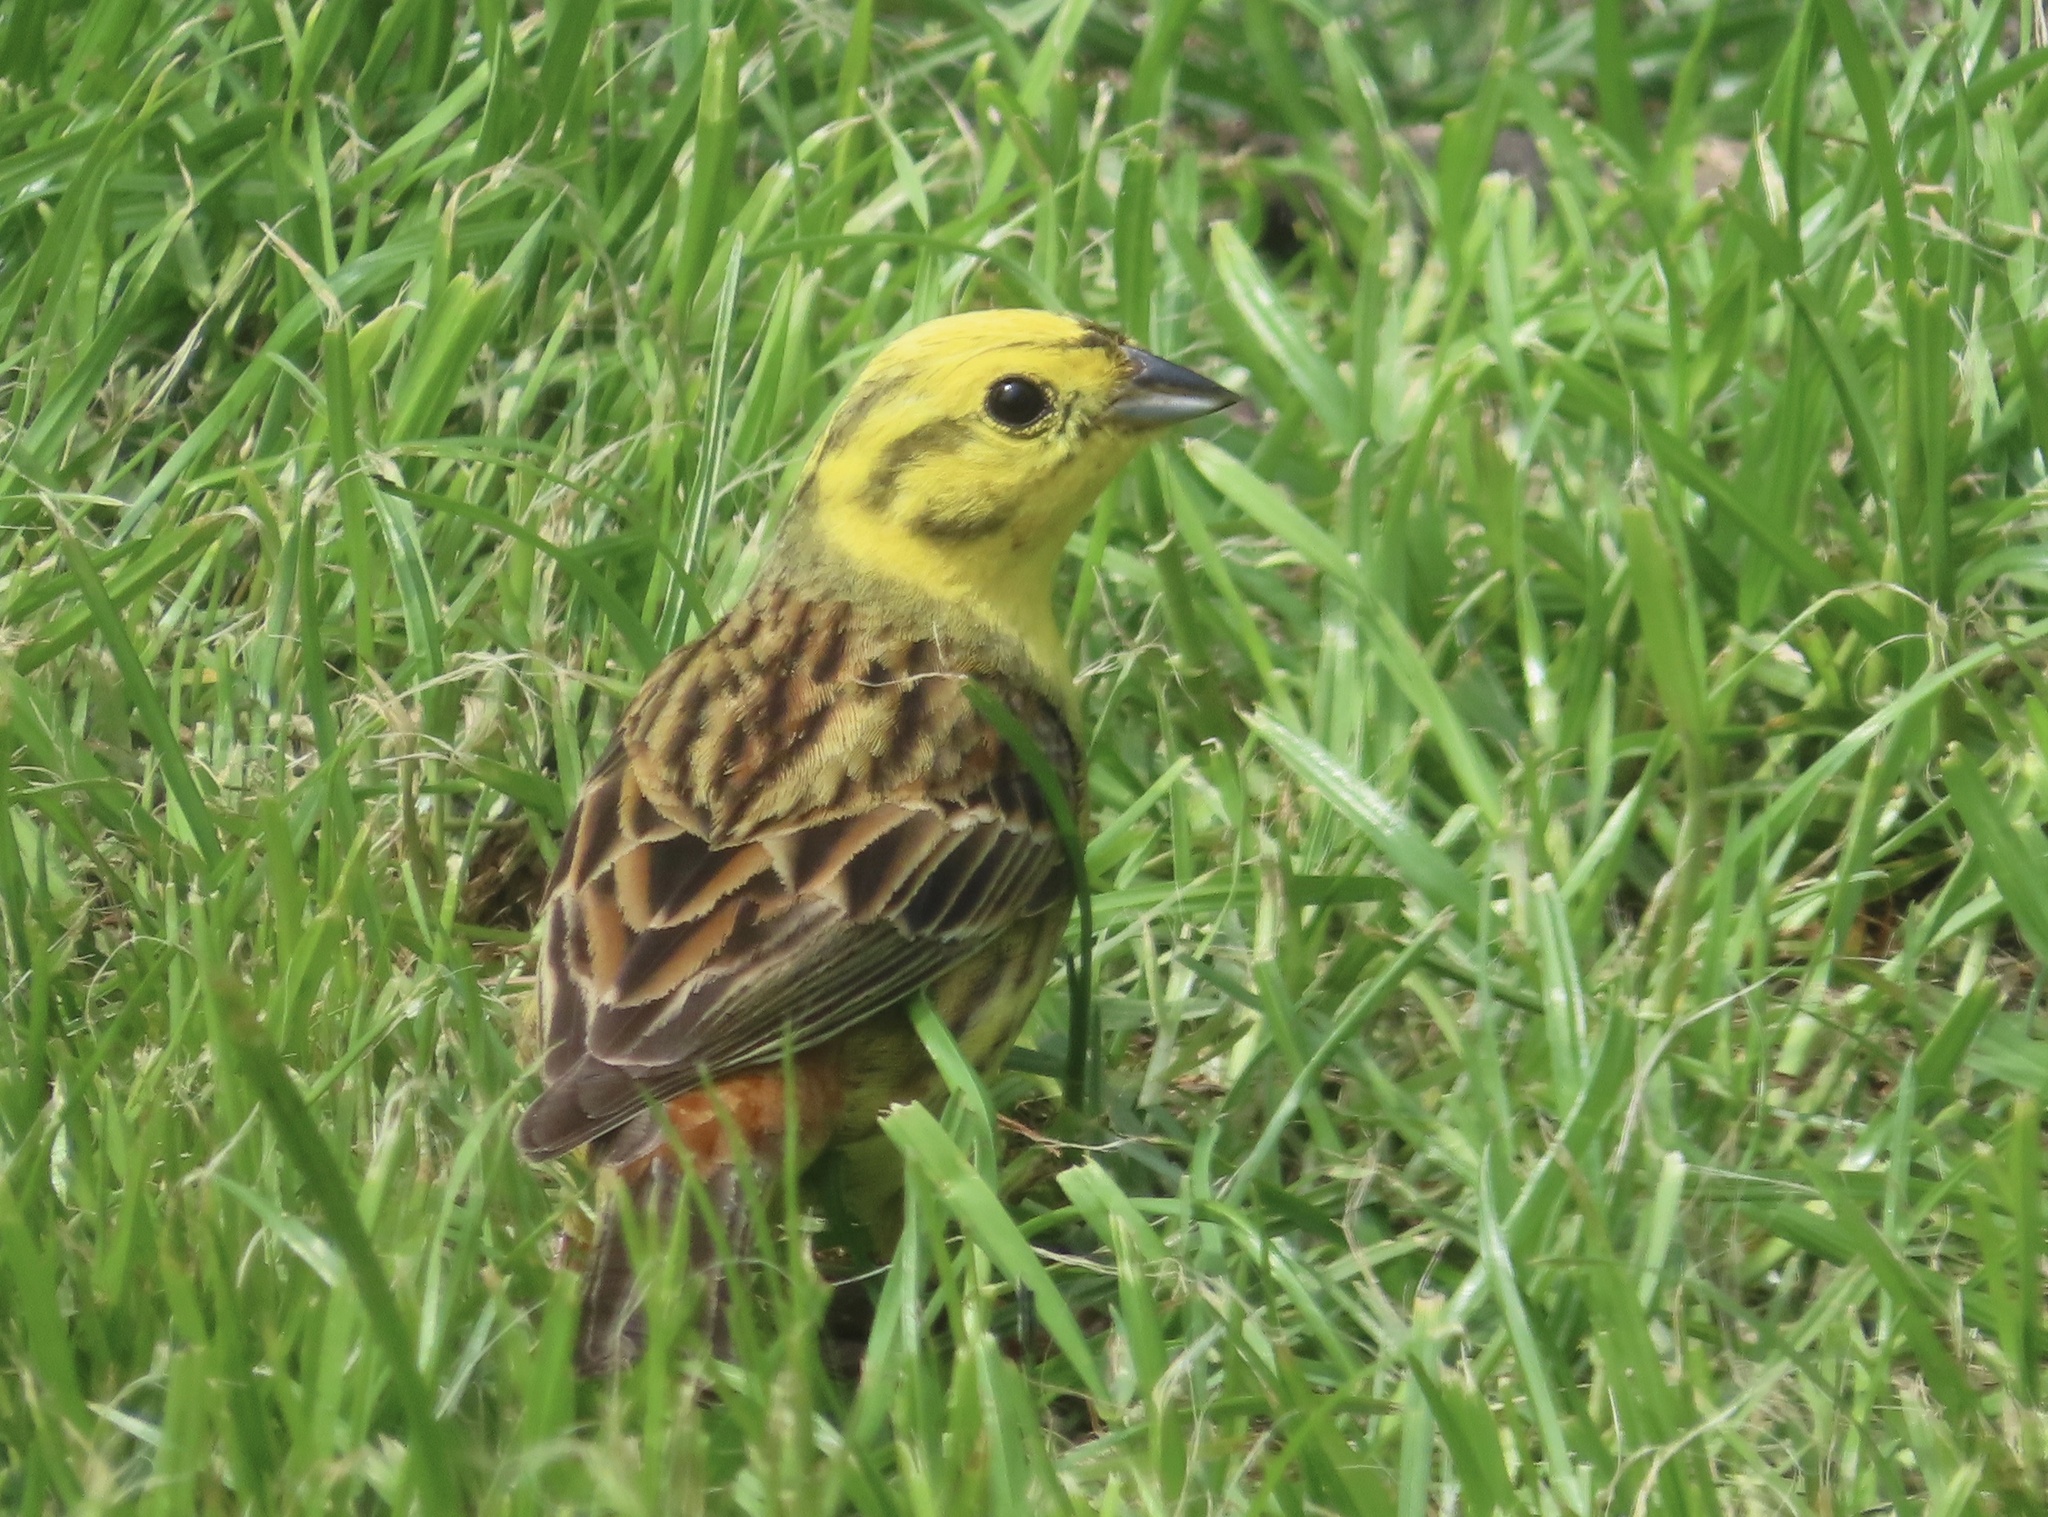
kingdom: Animalia
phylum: Chordata
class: Aves
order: Passeriformes
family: Emberizidae
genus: Emberiza
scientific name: Emberiza citrinella
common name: Yellowhammer
